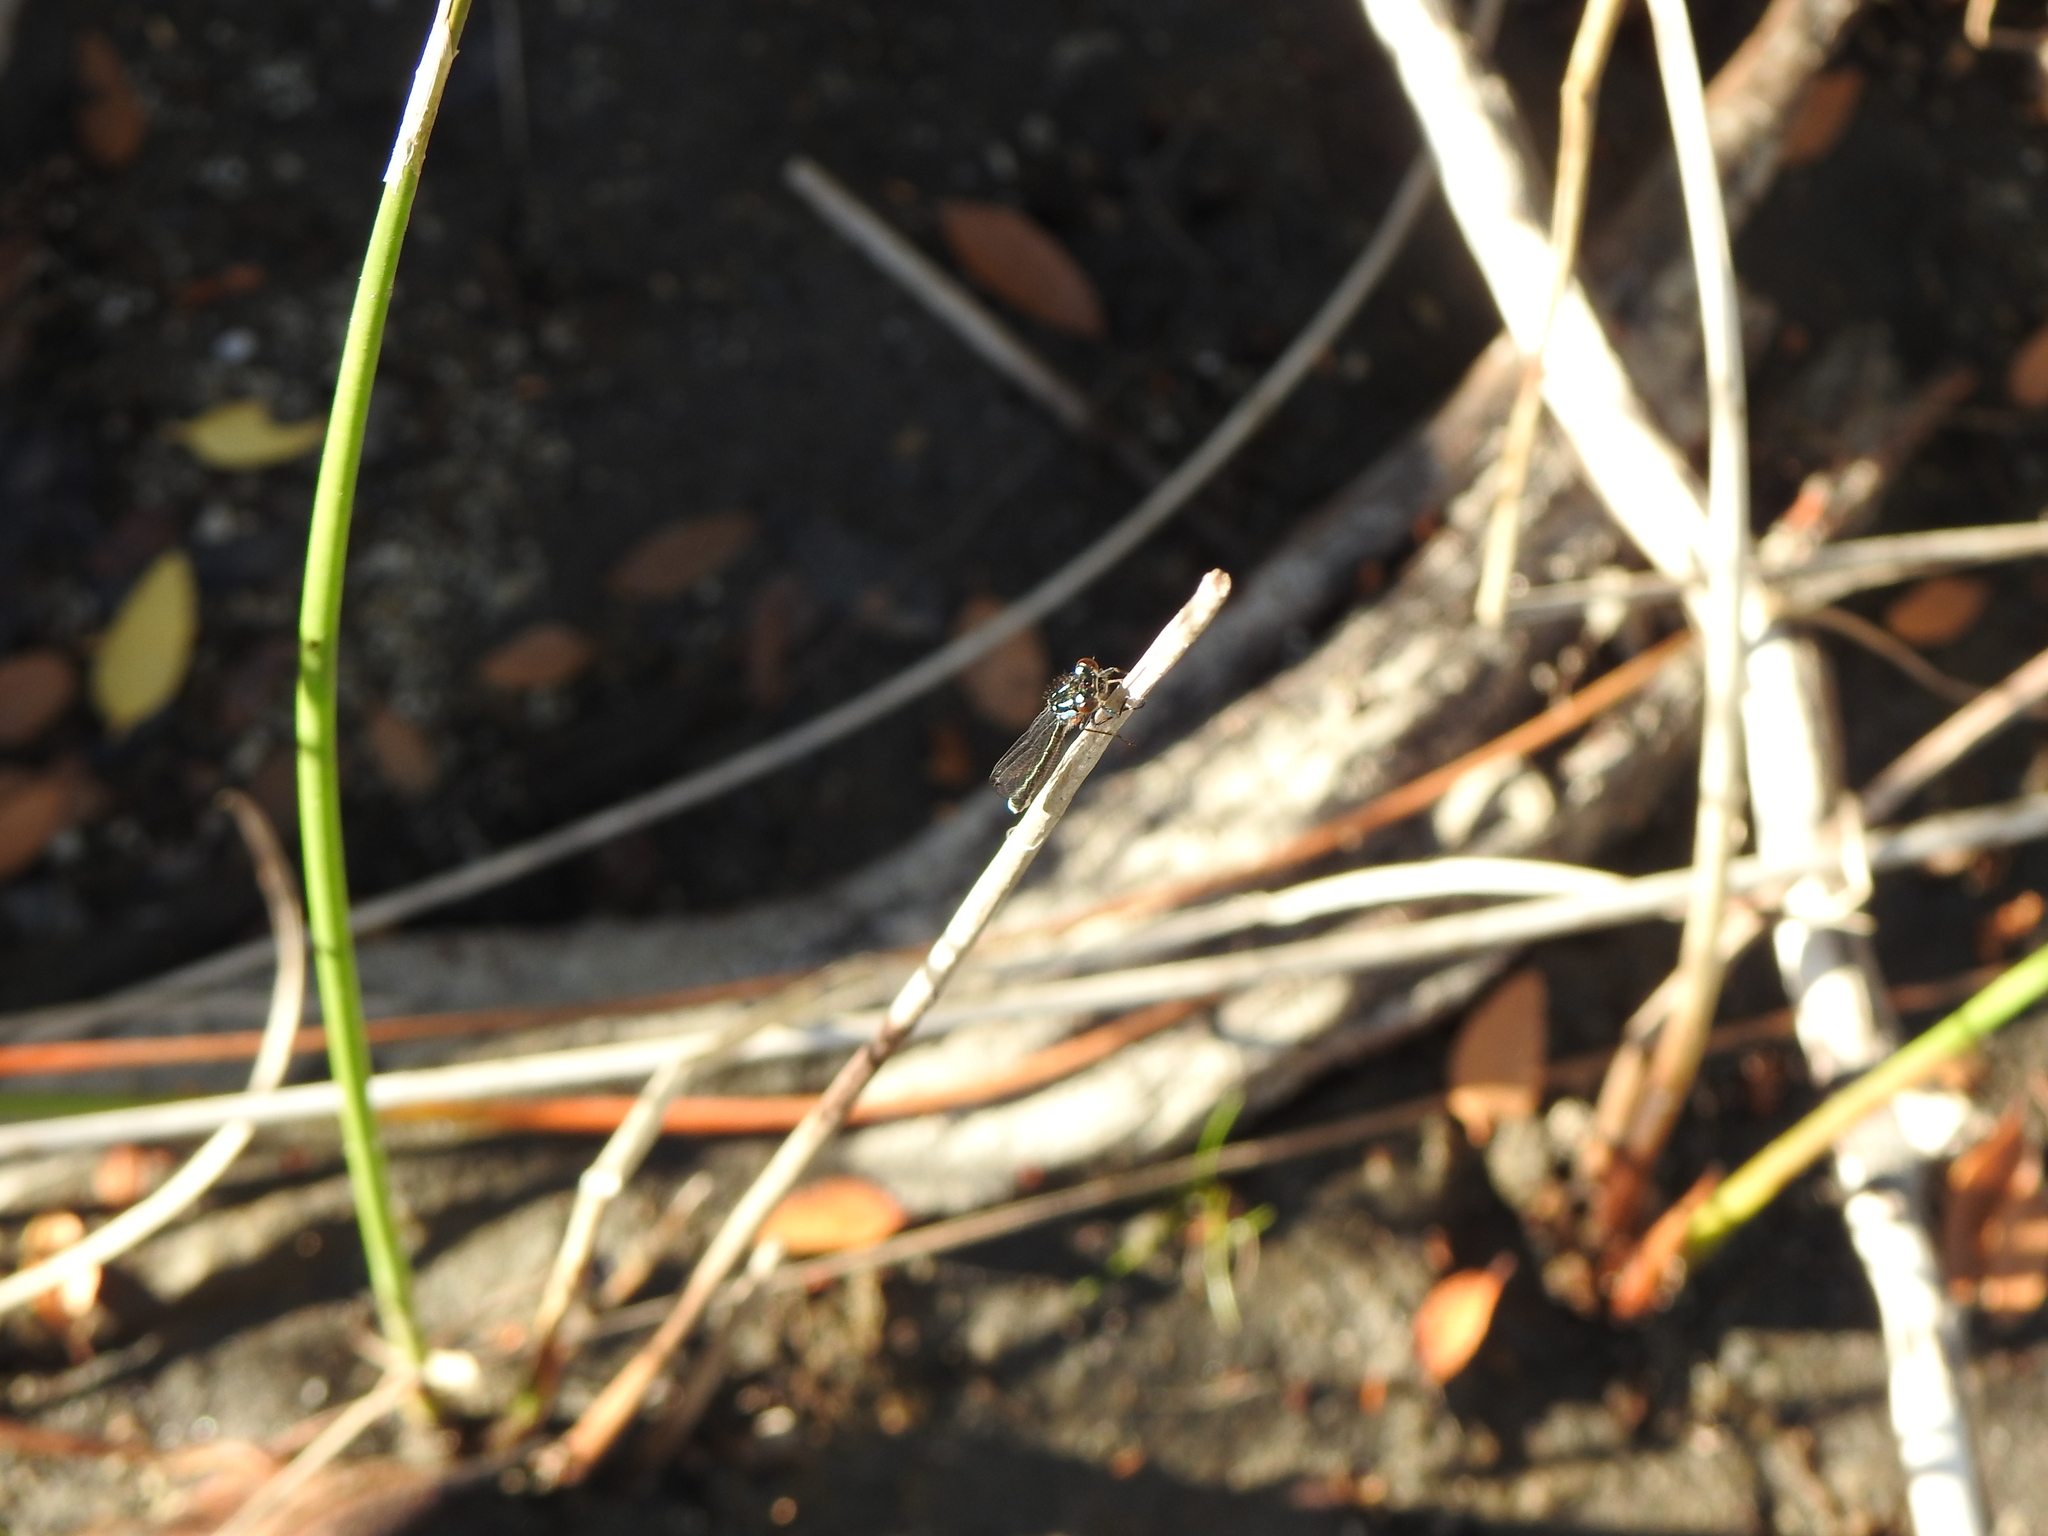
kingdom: Animalia
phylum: Arthropoda
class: Insecta
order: Odonata
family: Coenagrionidae
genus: Cyanallagma
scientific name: Cyanallagma interruptum
